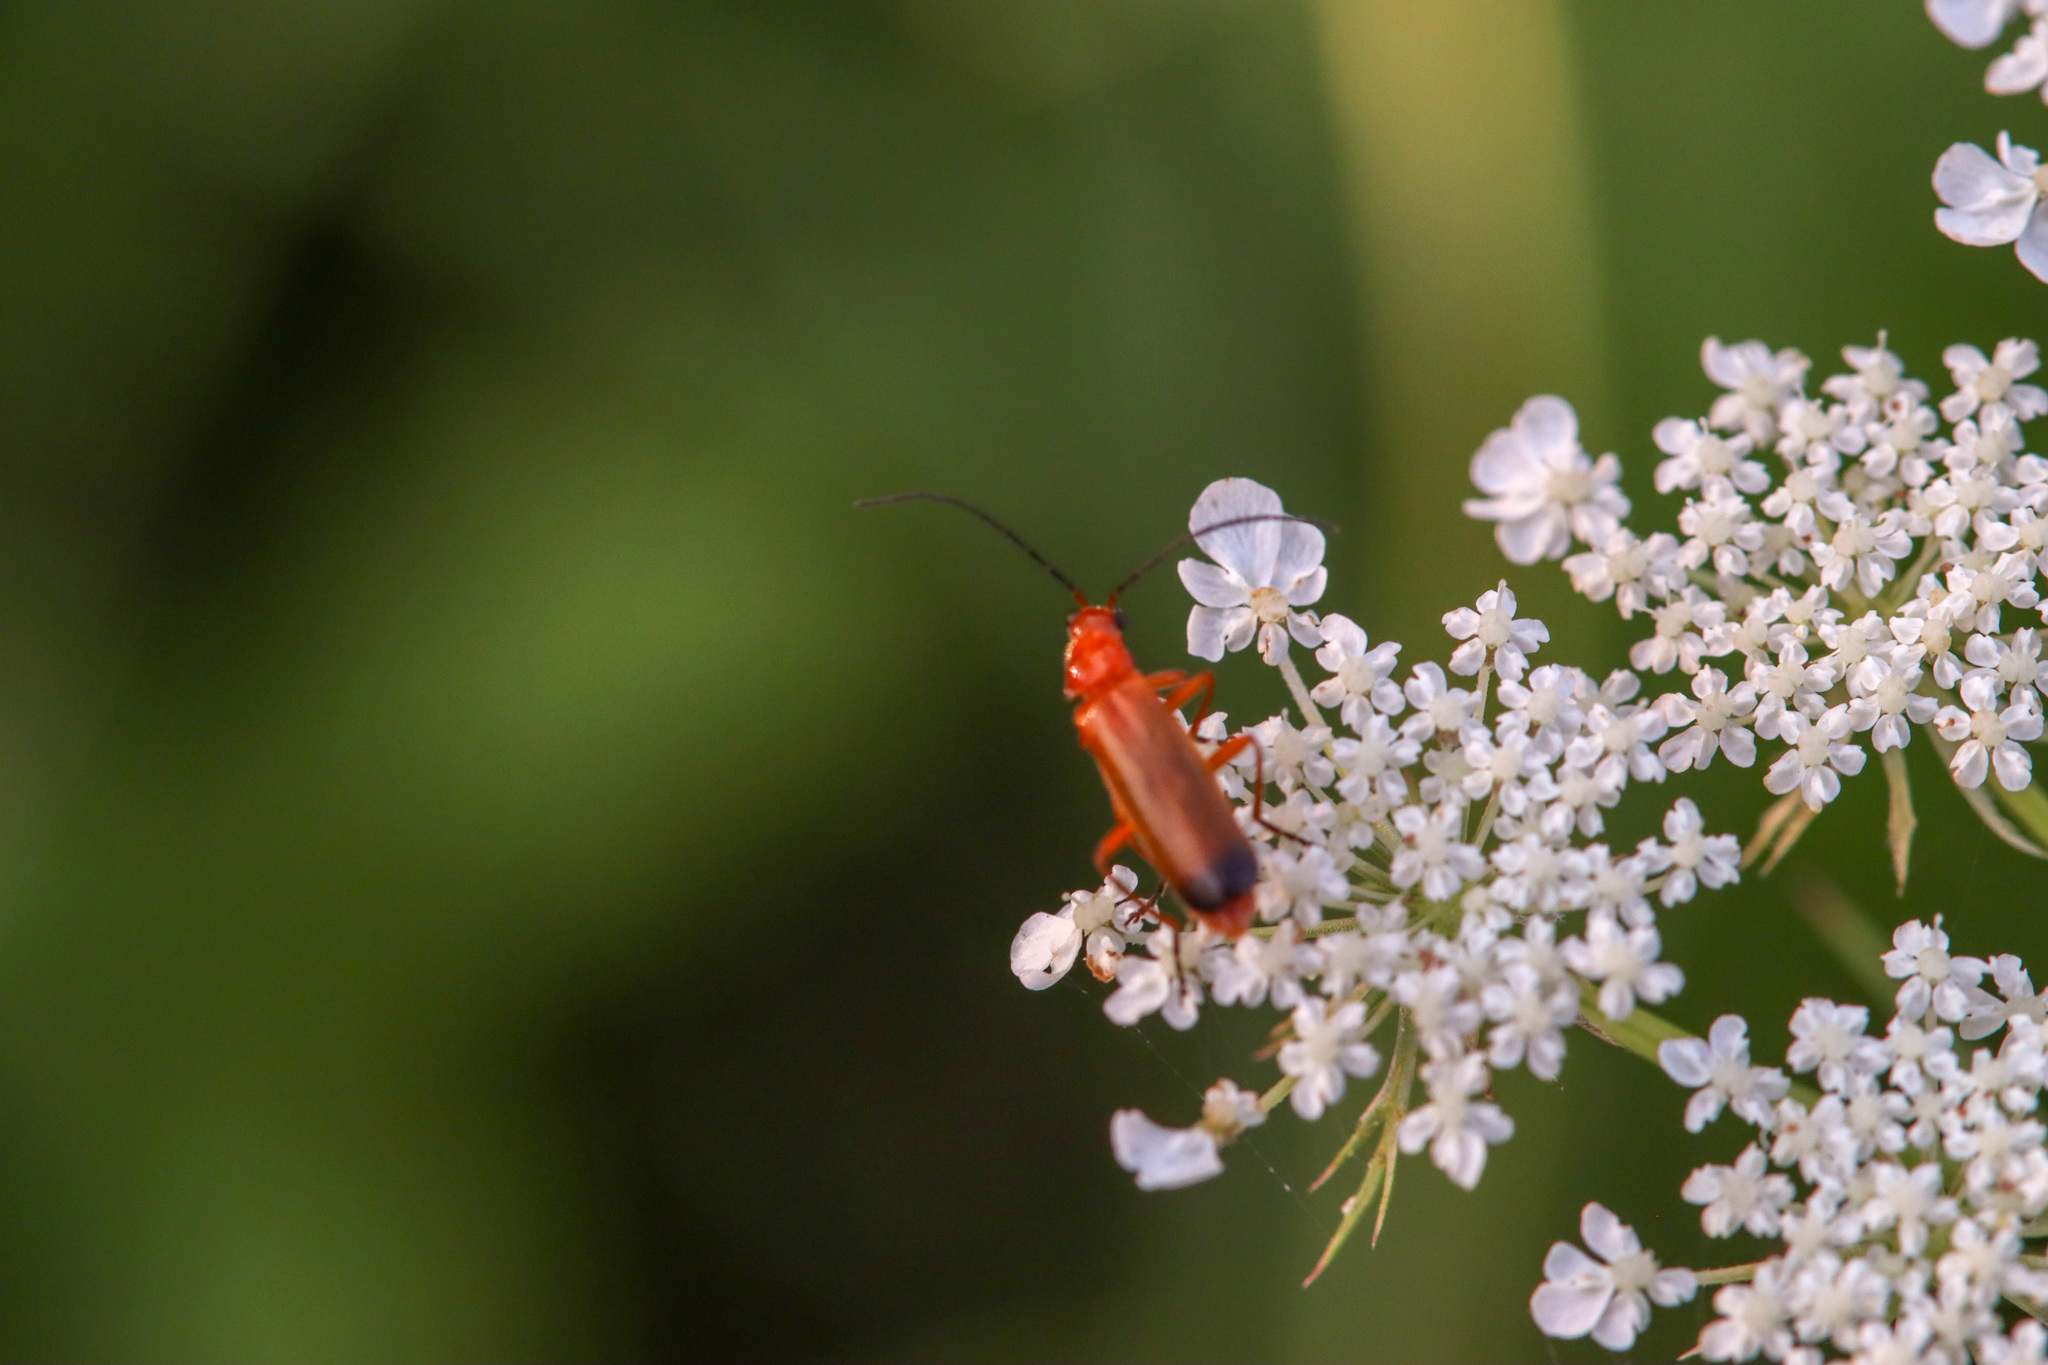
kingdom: Animalia
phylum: Arthropoda
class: Insecta
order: Coleoptera
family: Cantharidae
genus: Rhagonycha
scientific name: Rhagonycha fulva
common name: Common red soldier beetle
